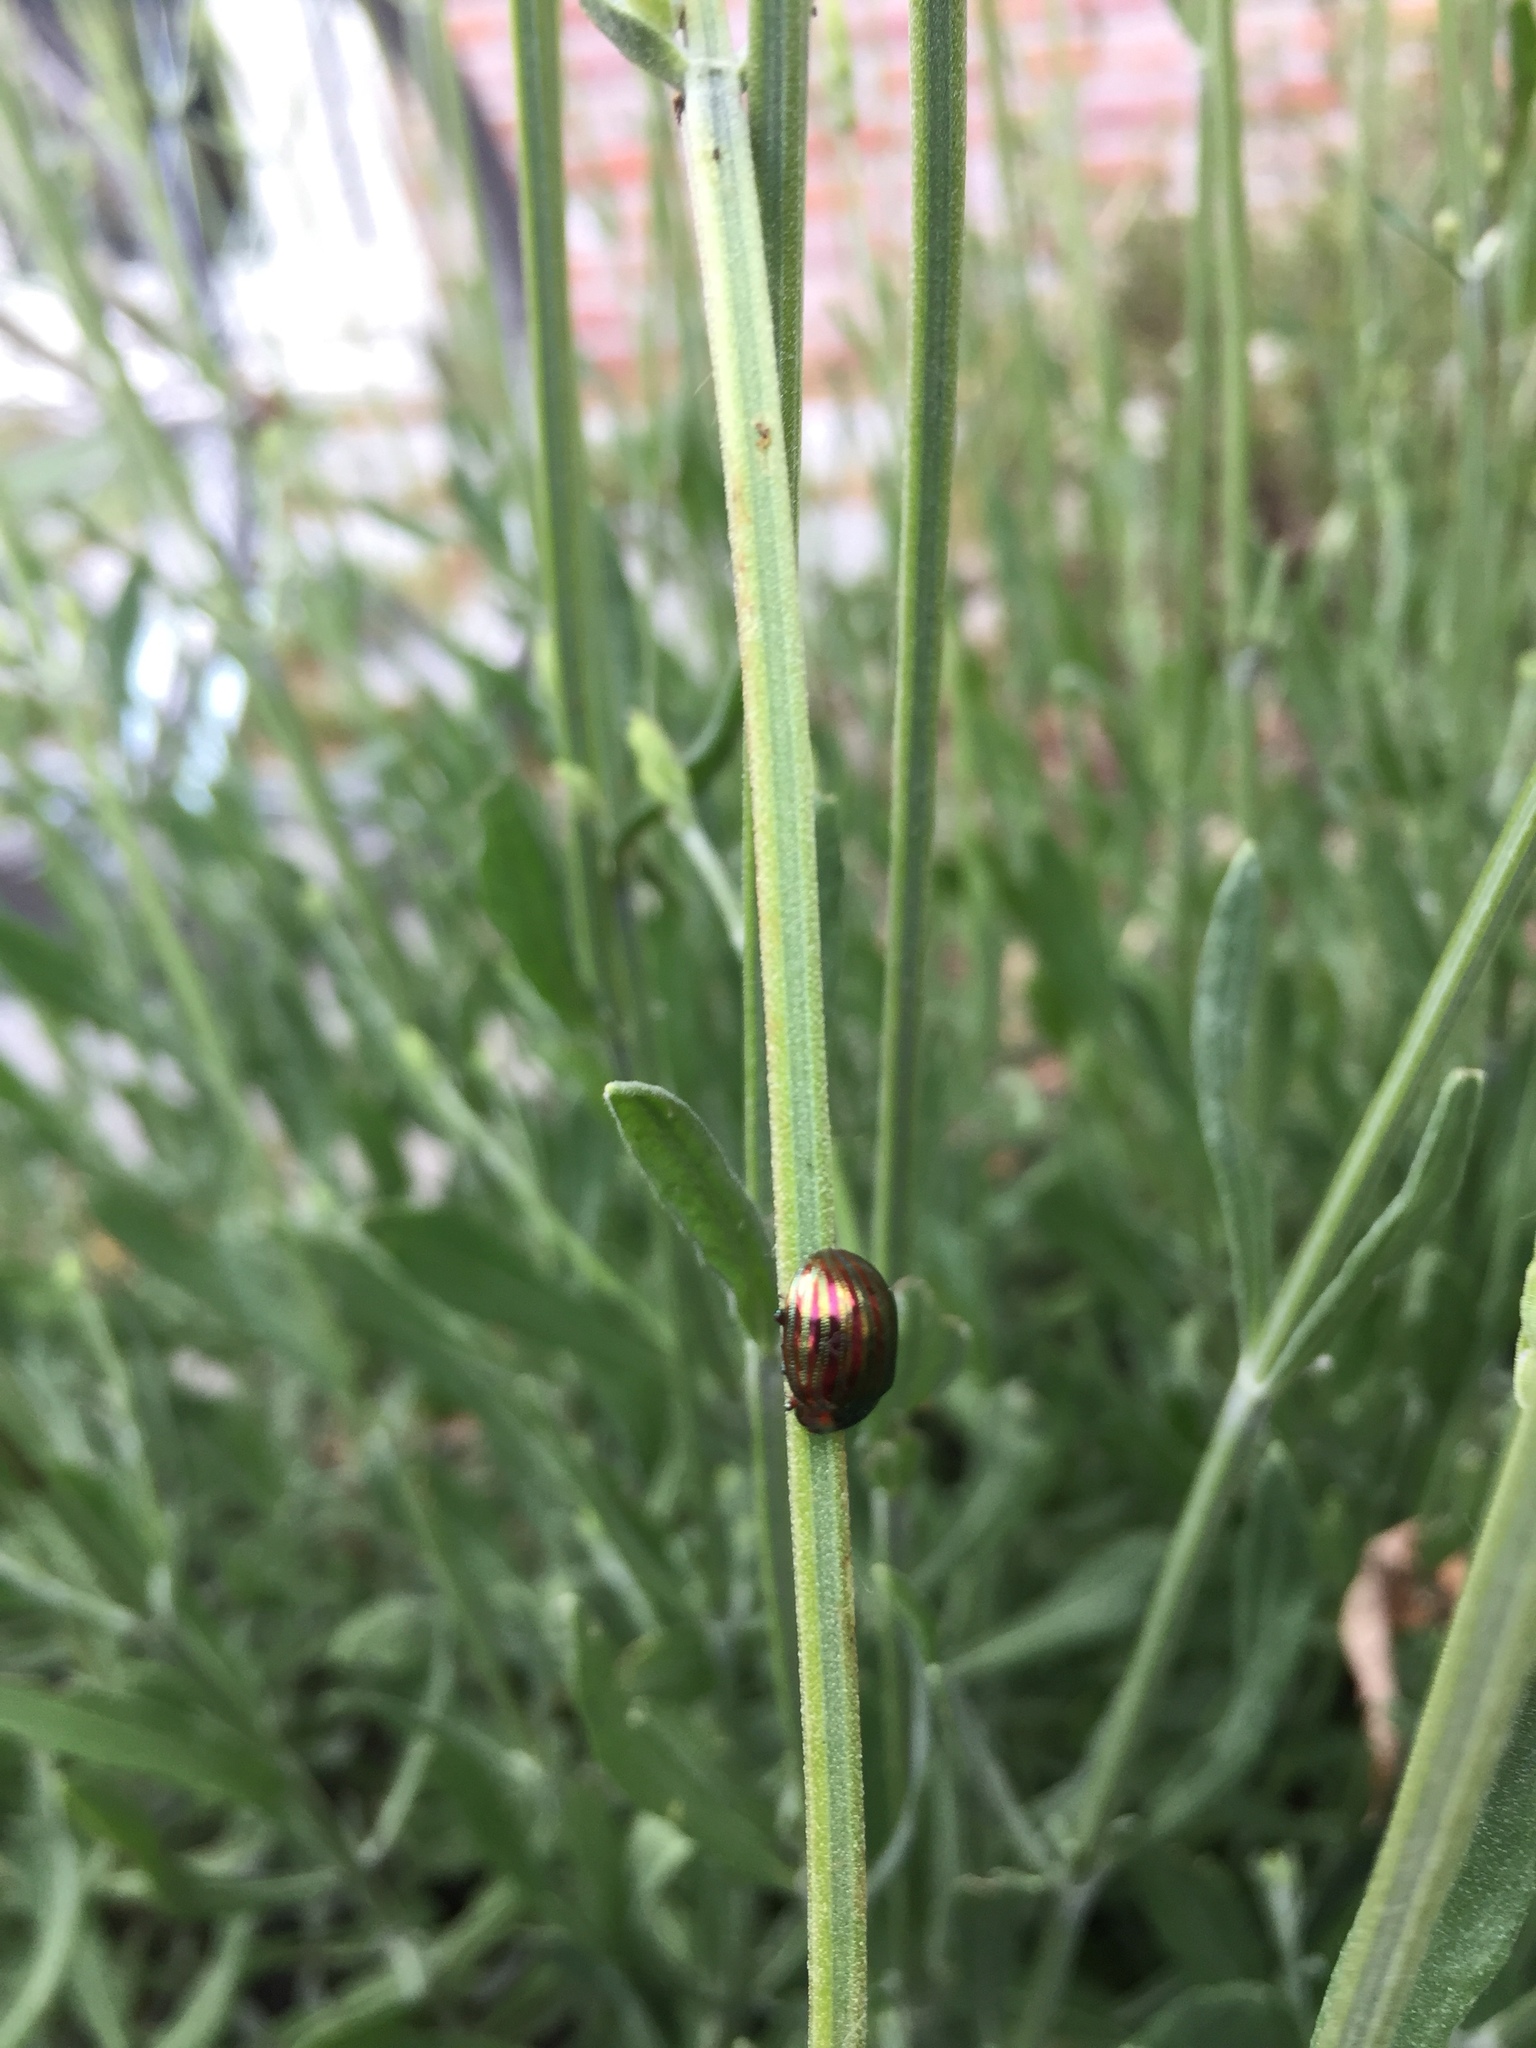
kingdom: Animalia
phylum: Arthropoda
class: Insecta
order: Coleoptera
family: Chrysomelidae
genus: Chrysolina
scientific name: Chrysolina americana
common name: Rosemary beetle
